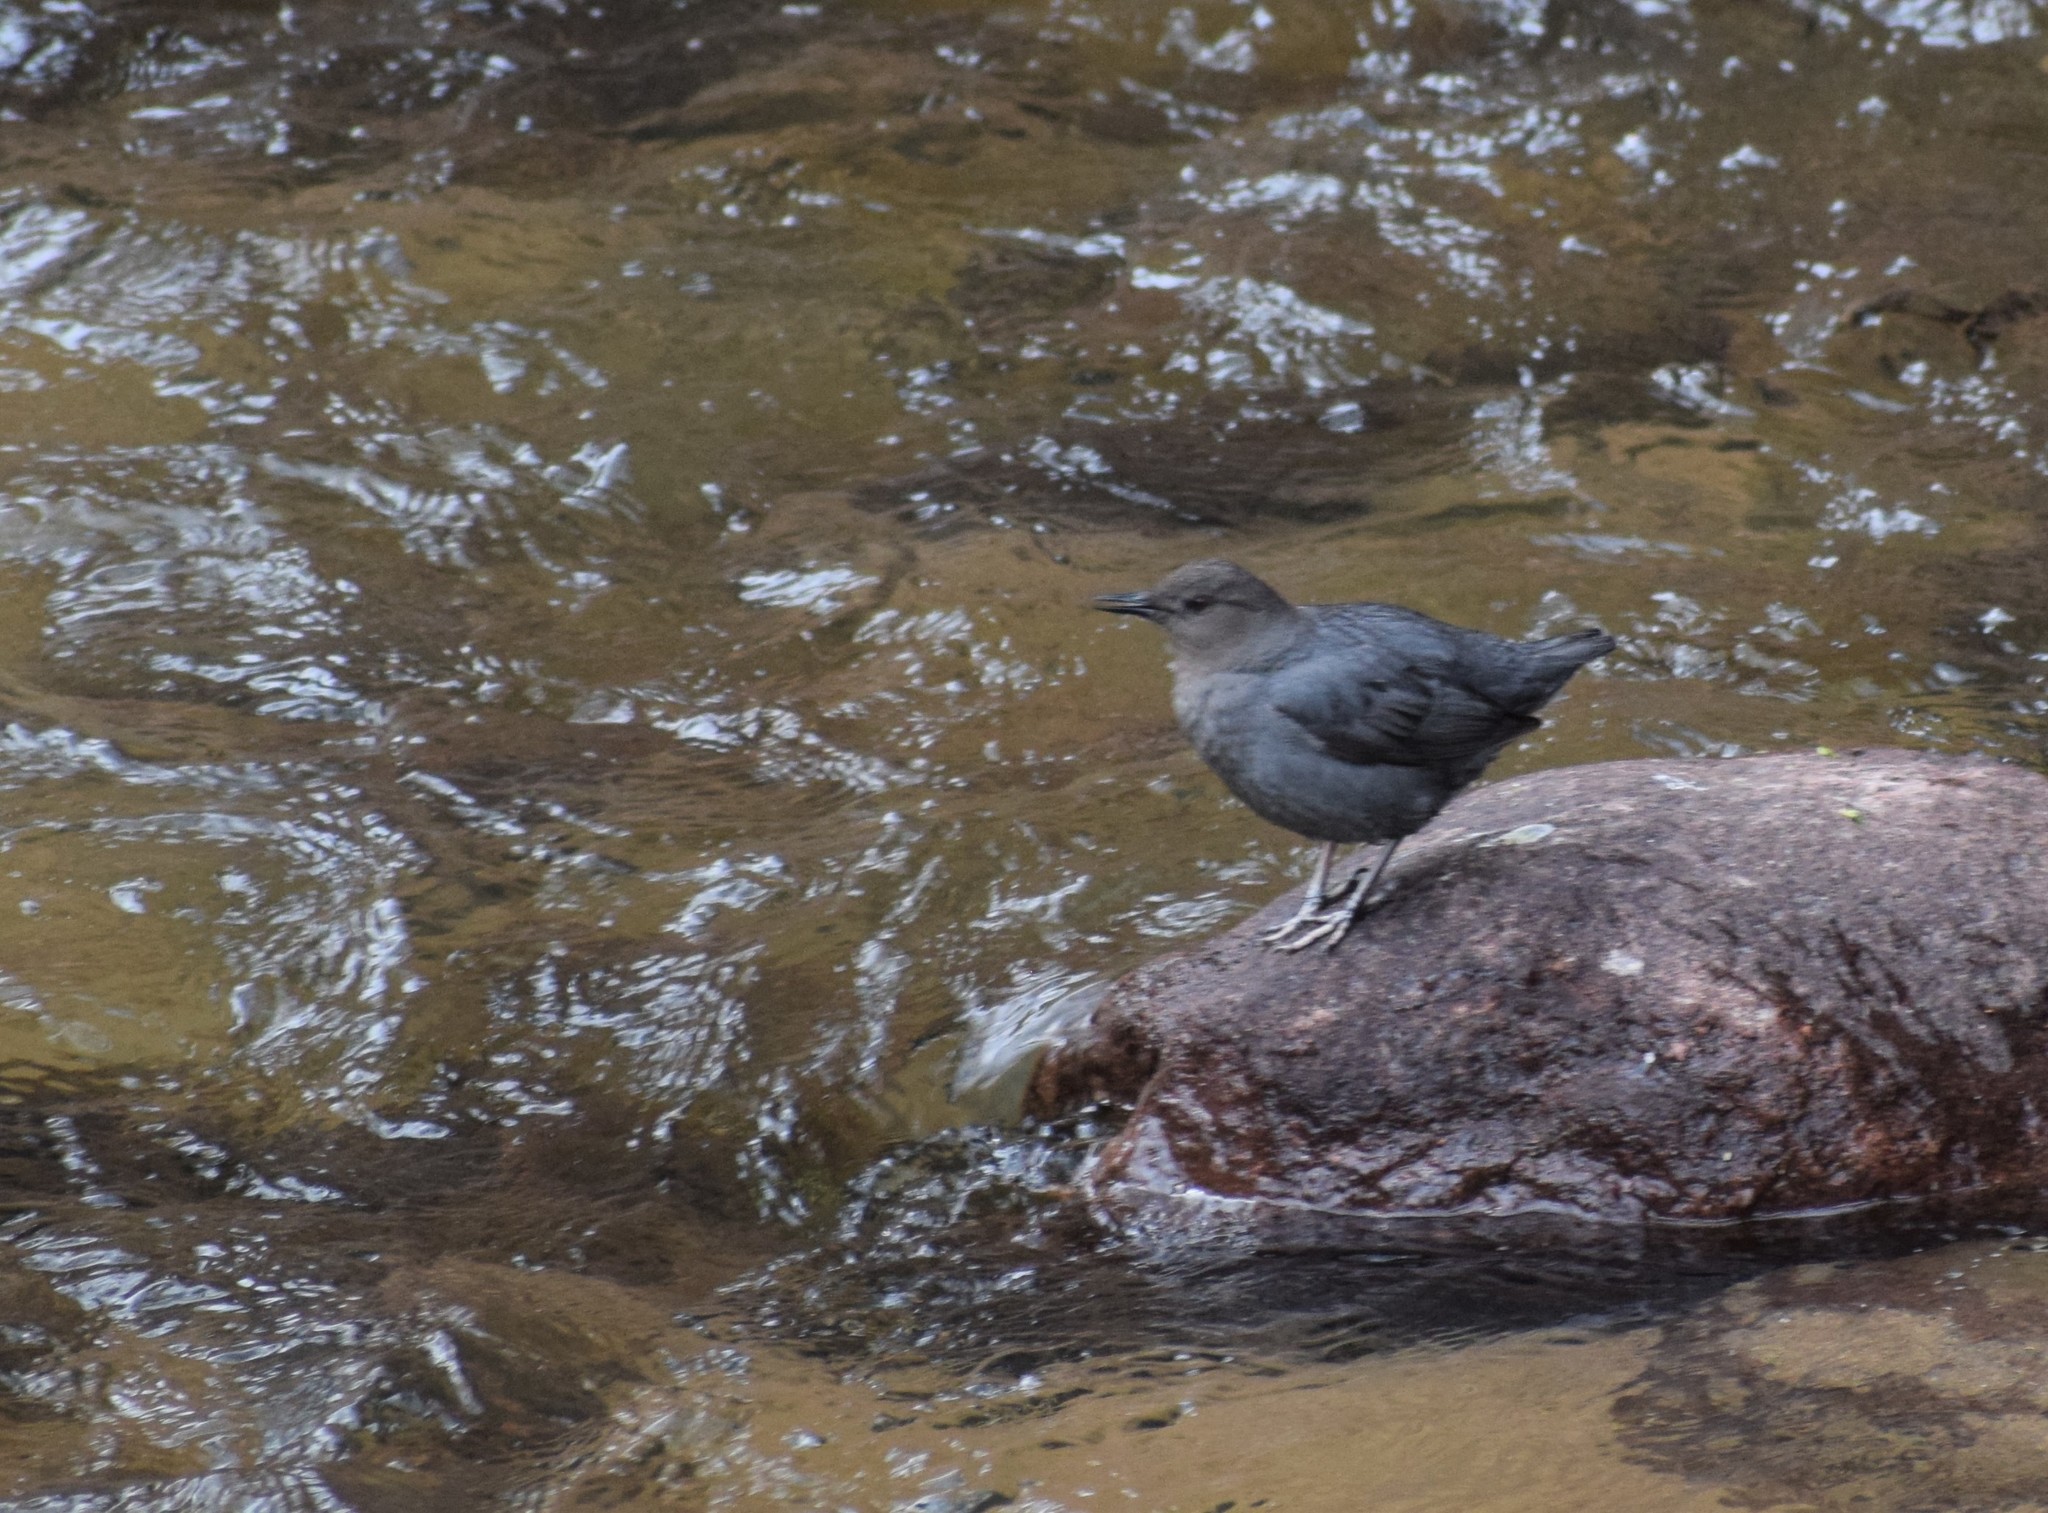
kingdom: Animalia
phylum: Chordata
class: Aves
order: Passeriformes
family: Cinclidae
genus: Cinclus
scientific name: Cinclus mexicanus
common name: American dipper
